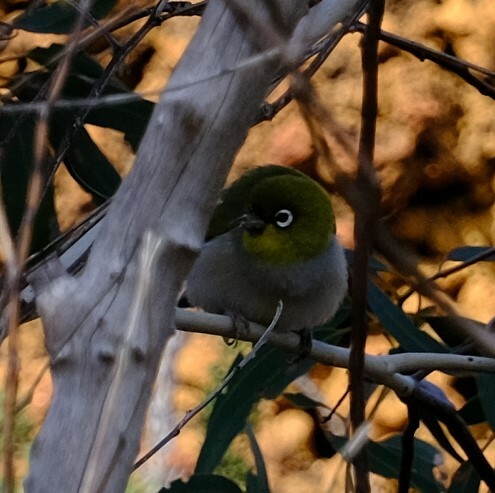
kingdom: Animalia
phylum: Chordata
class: Aves
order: Passeriformes
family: Zosteropidae
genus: Zosterops
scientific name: Zosterops lateralis
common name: Silvereye
